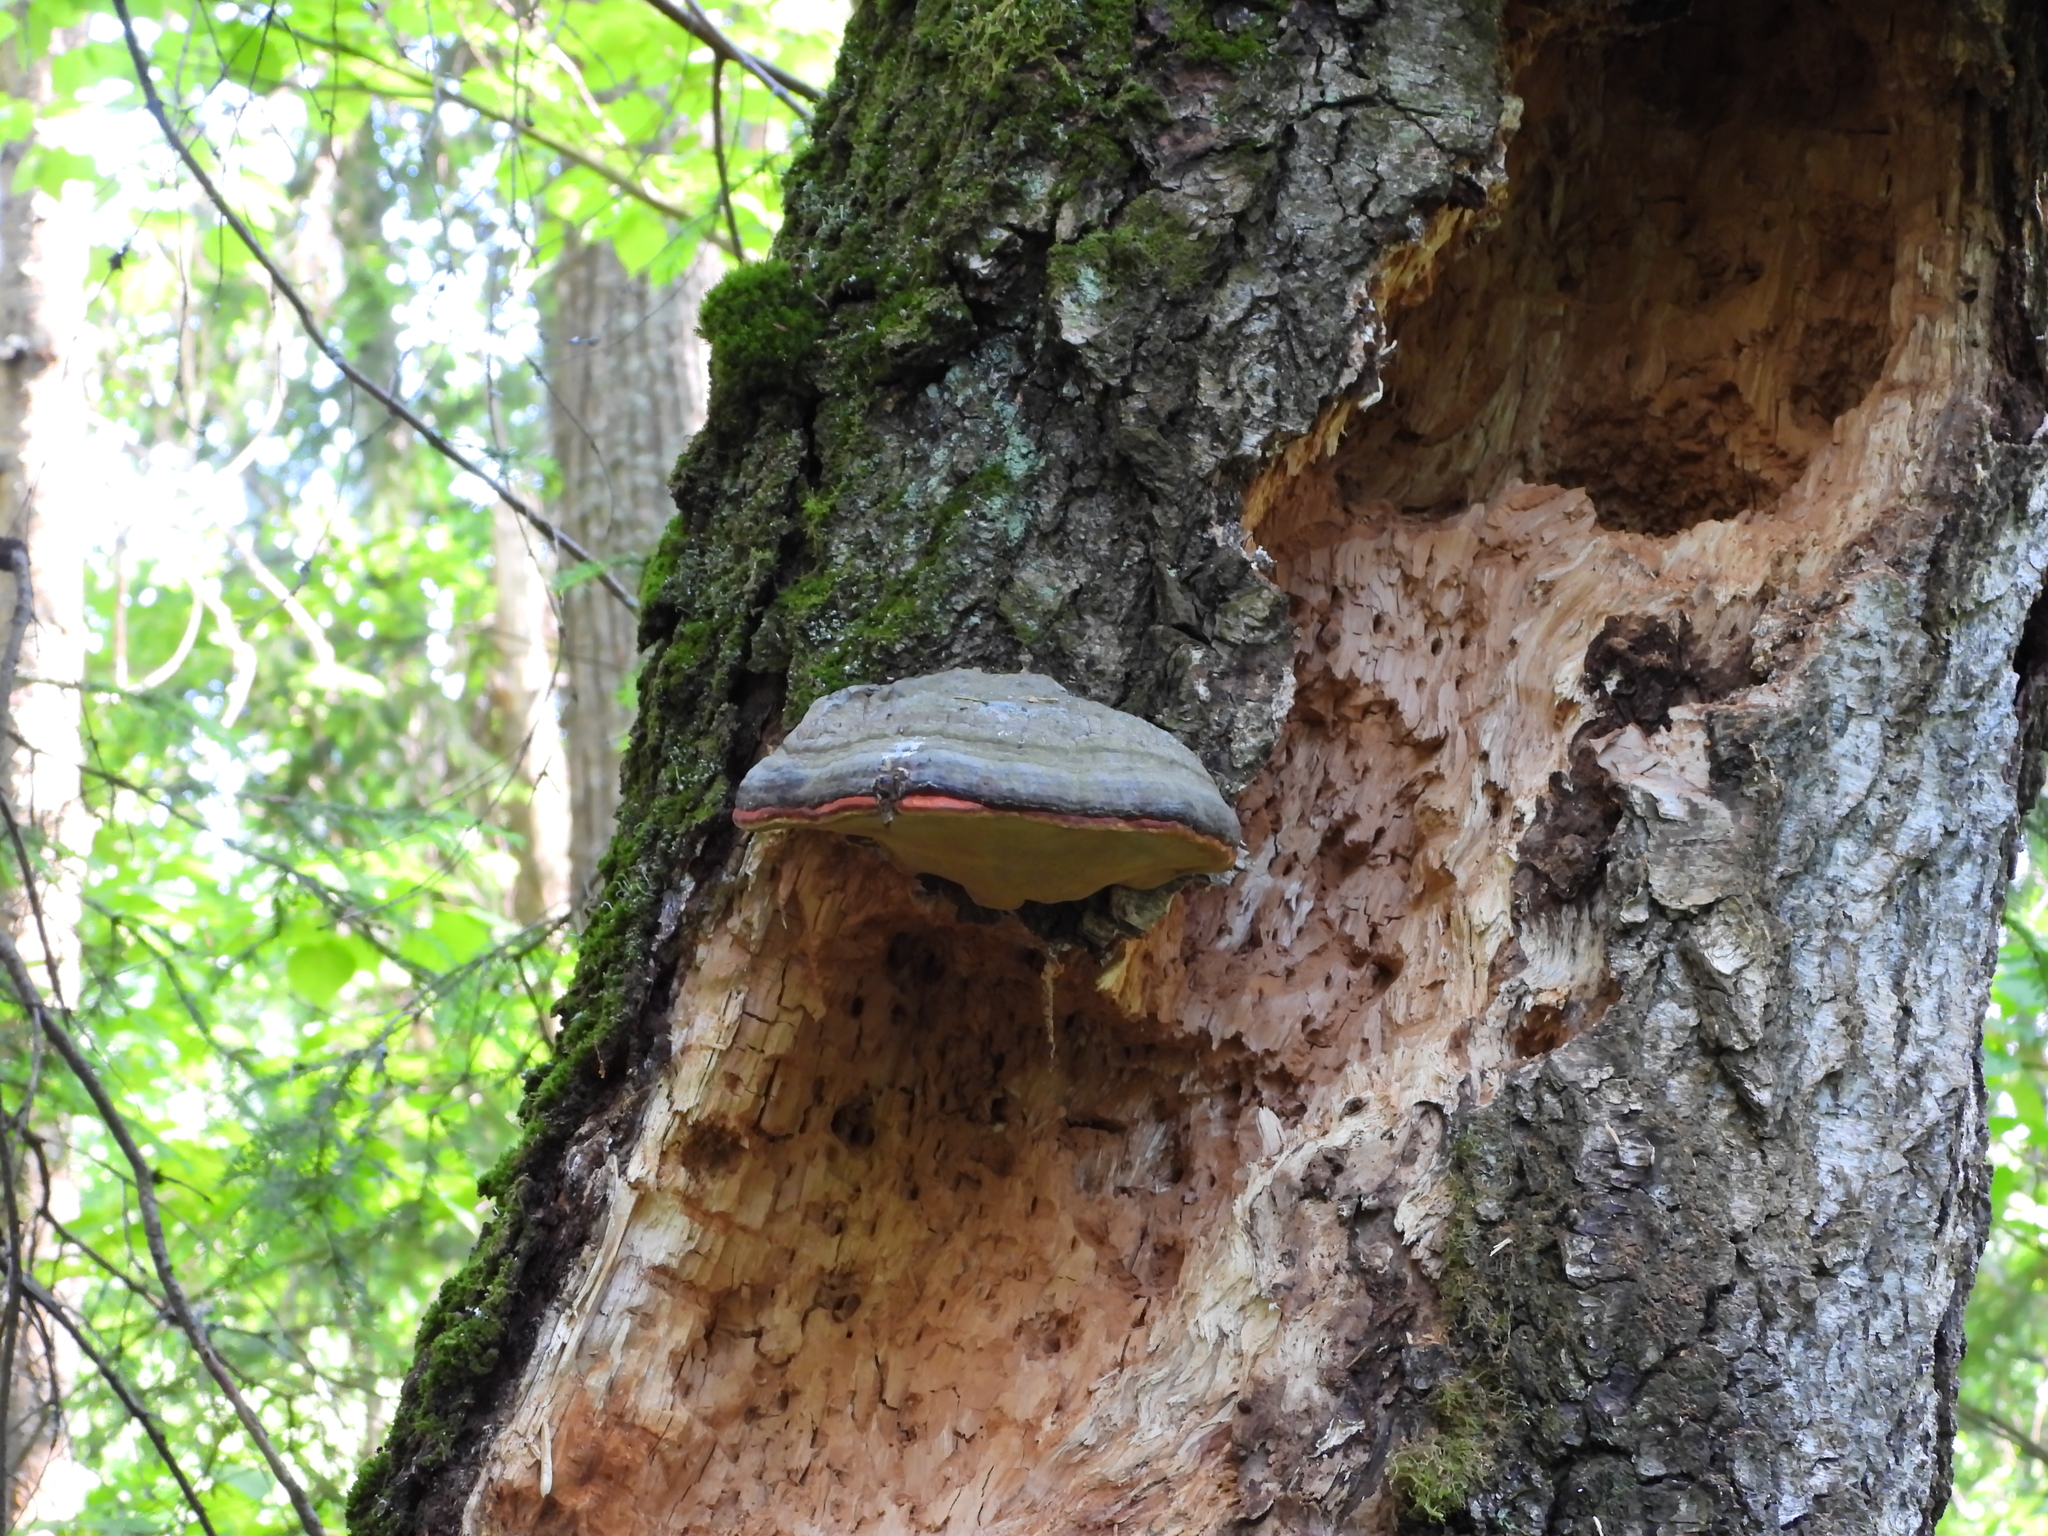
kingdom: Fungi
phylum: Basidiomycota
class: Agaricomycetes
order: Polyporales
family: Fomitopsidaceae
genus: Fomitopsis
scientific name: Fomitopsis pinicola
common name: Red-belted bracket
